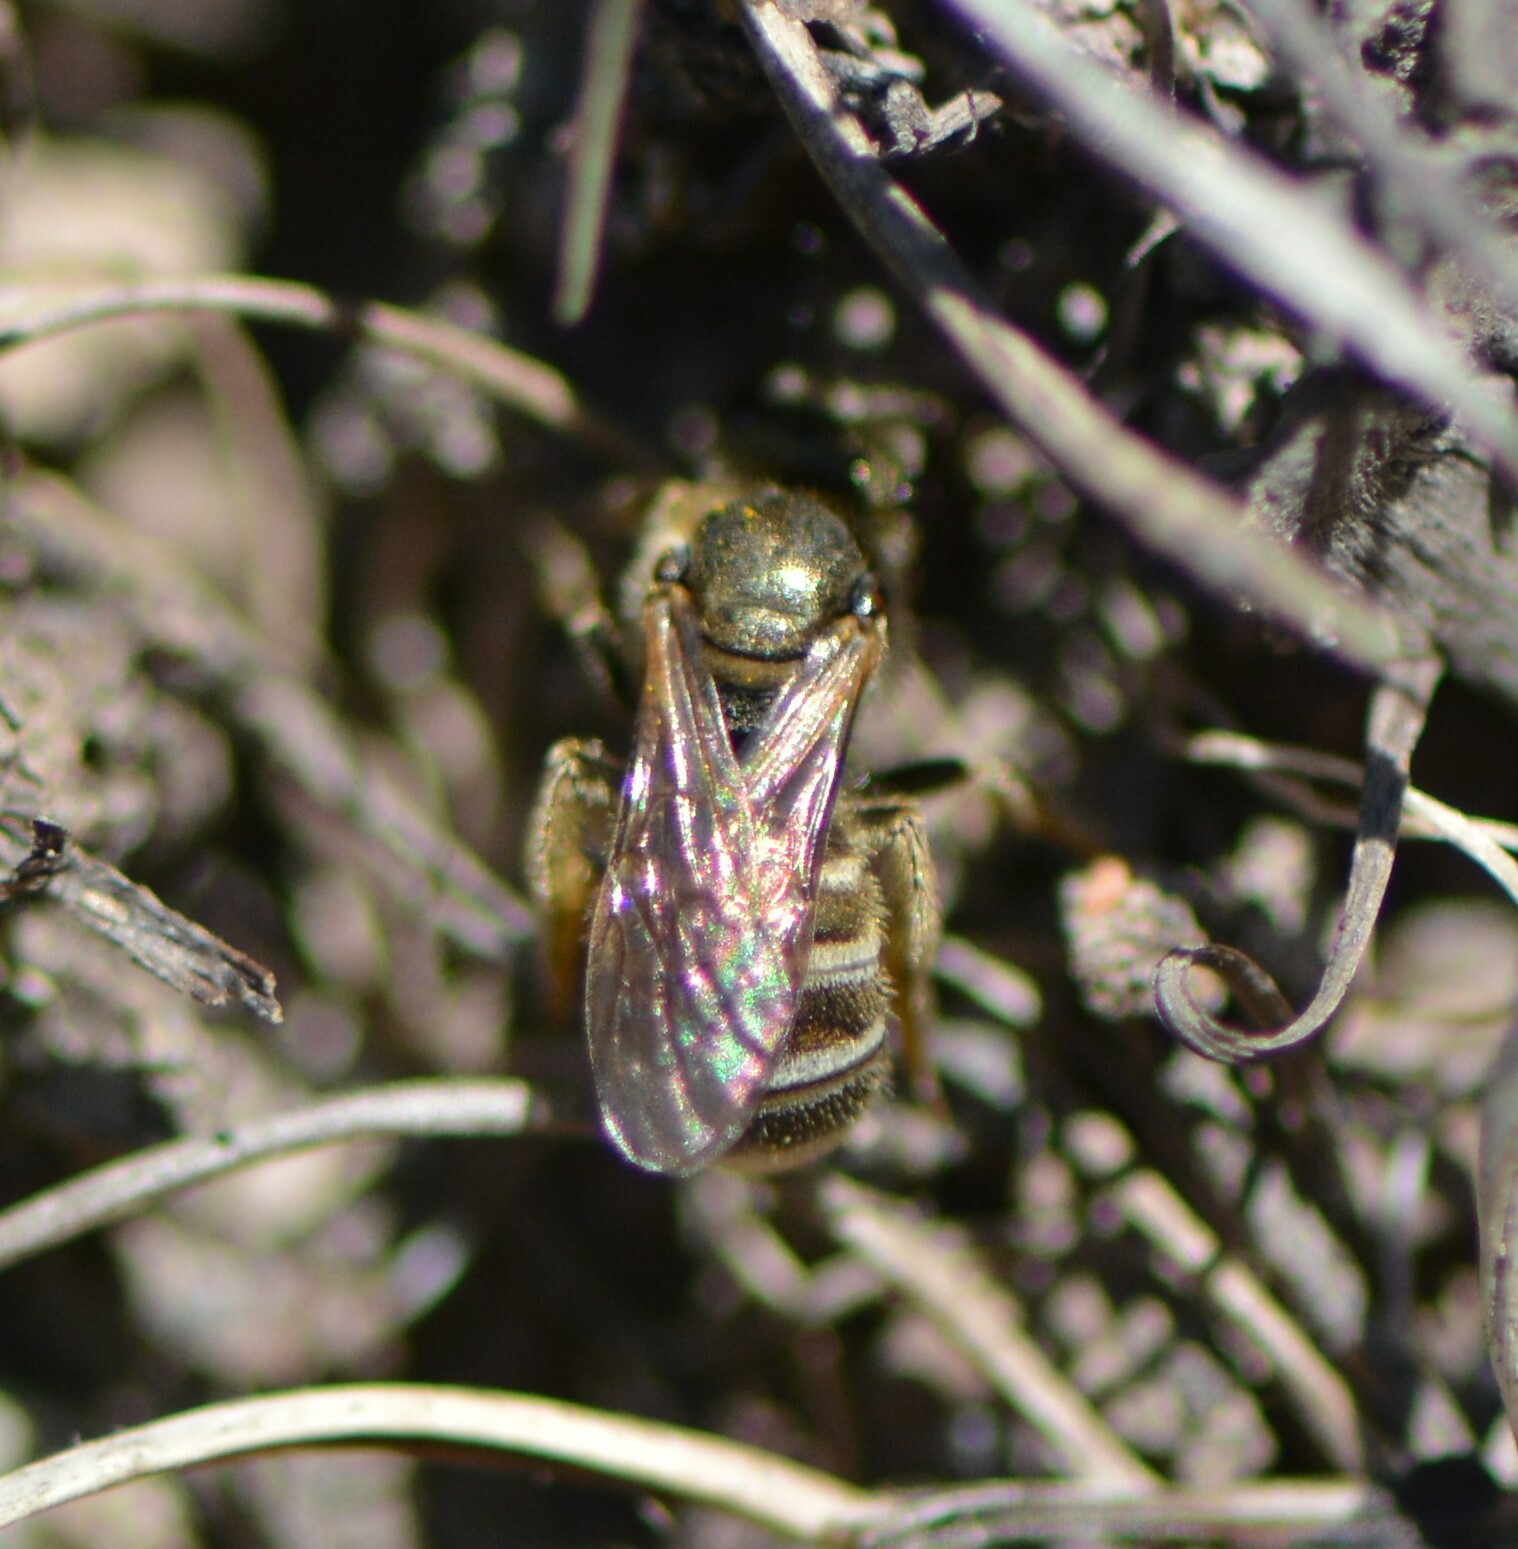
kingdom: Animalia
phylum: Arthropoda
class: Insecta
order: Hymenoptera
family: Halictidae
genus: Halictus
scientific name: Halictus confusus
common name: Southern bronze furrow bee
